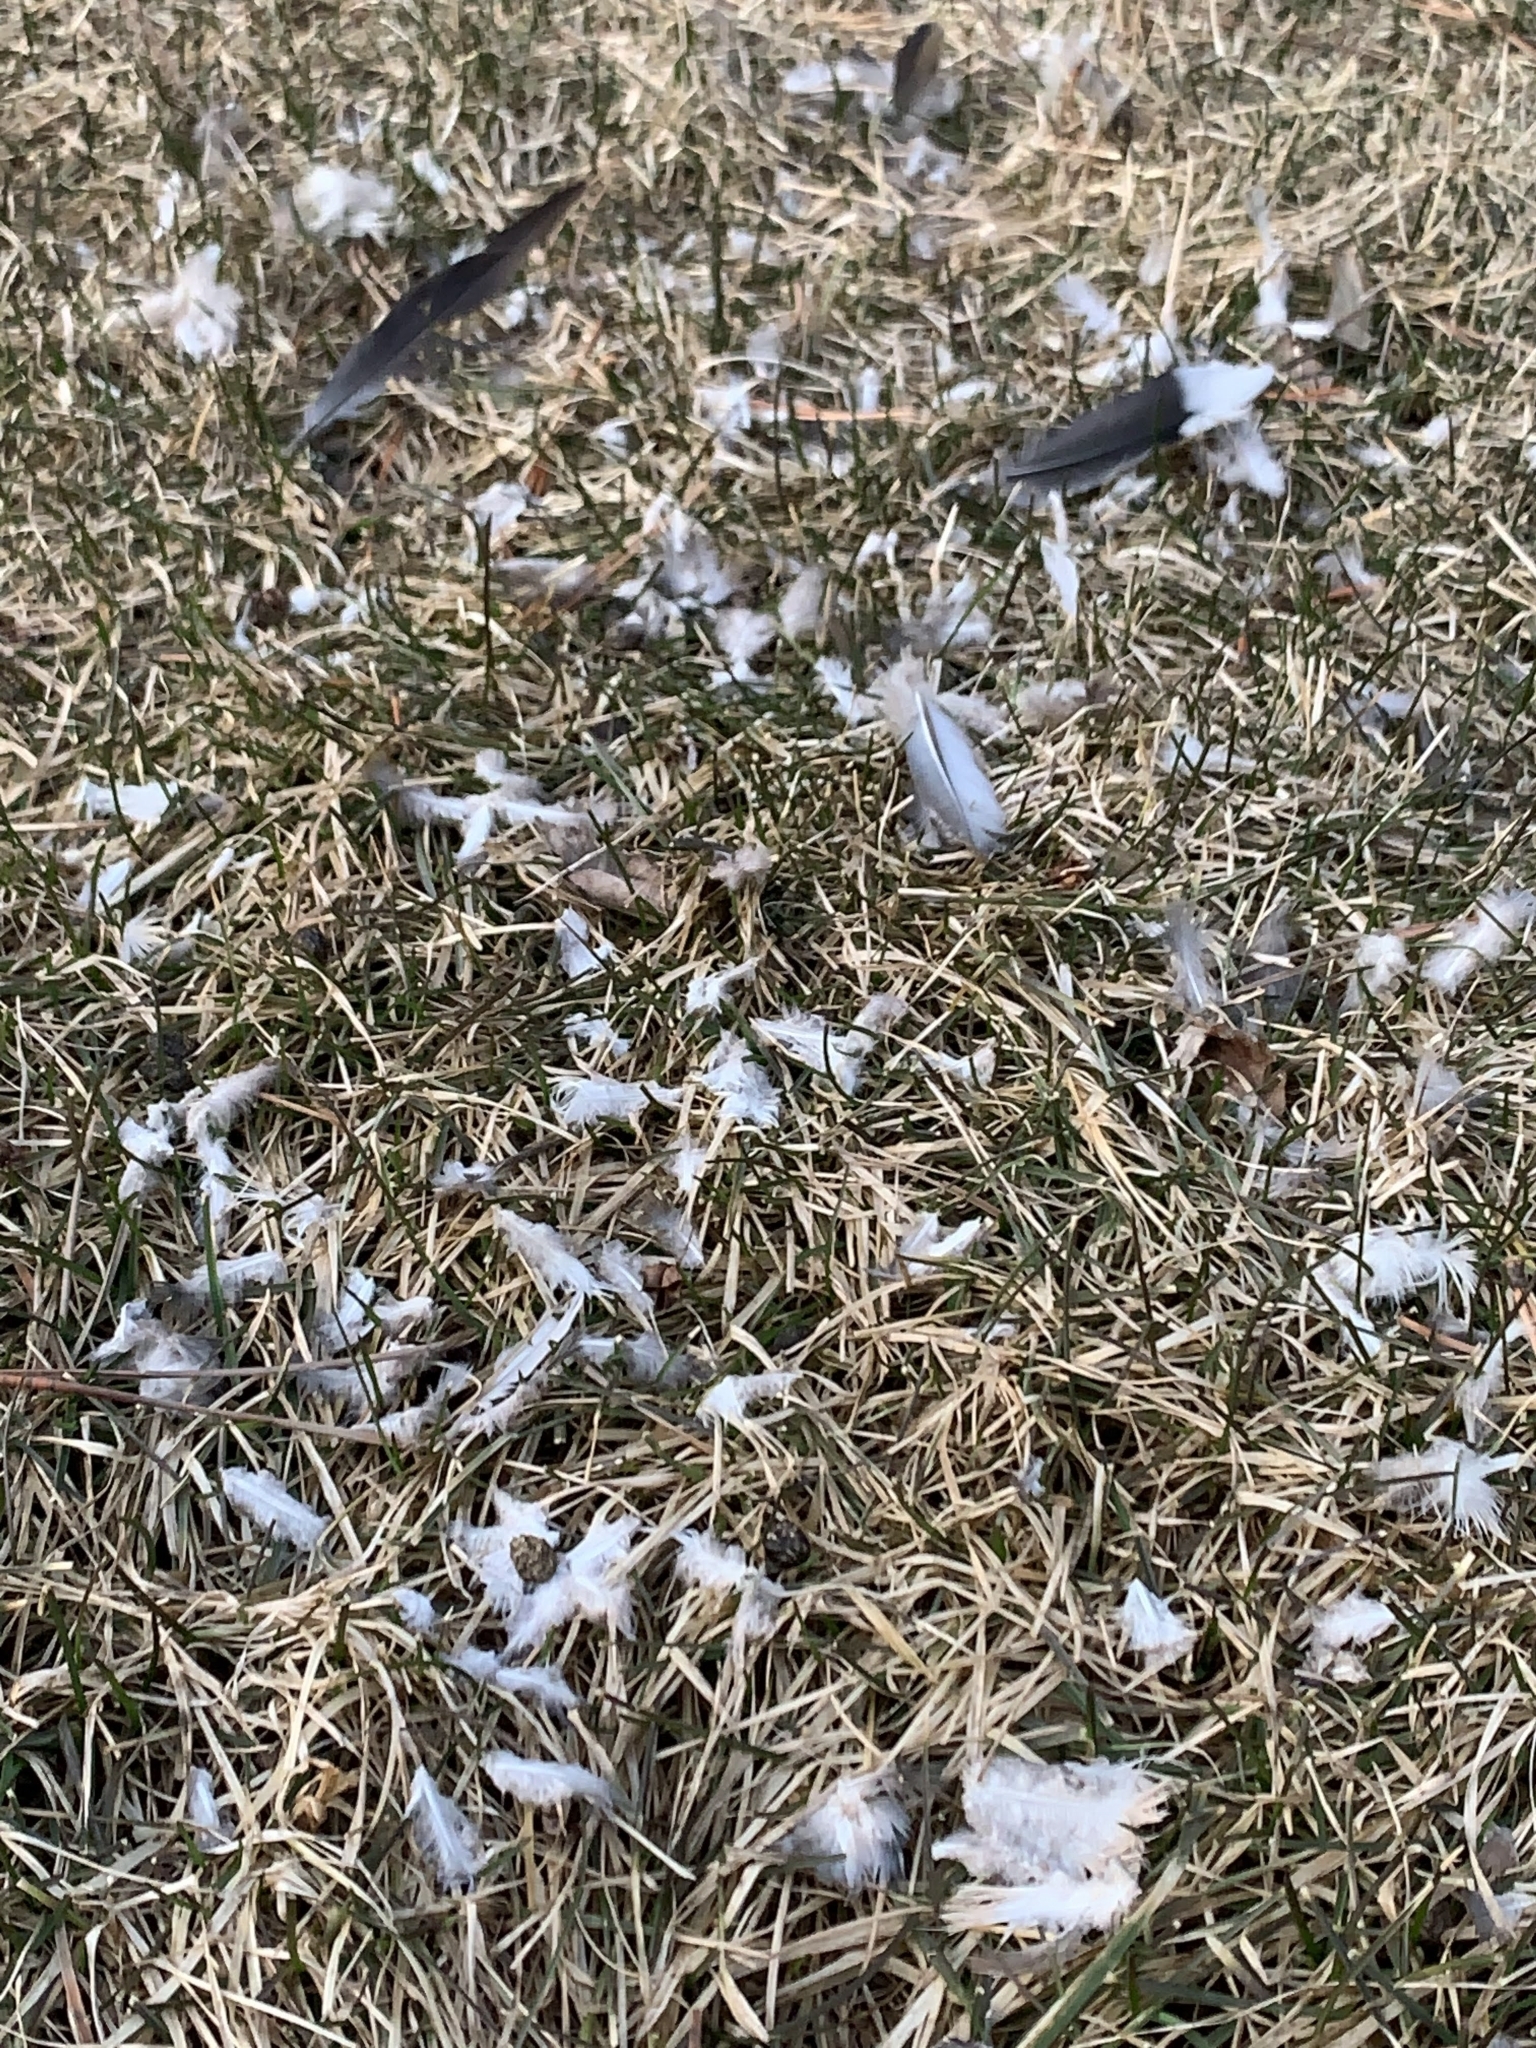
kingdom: Animalia
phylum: Chordata
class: Aves
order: Columbiformes
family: Columbidae
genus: Zenaida
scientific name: Zenaida macroura
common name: Mourning dove
